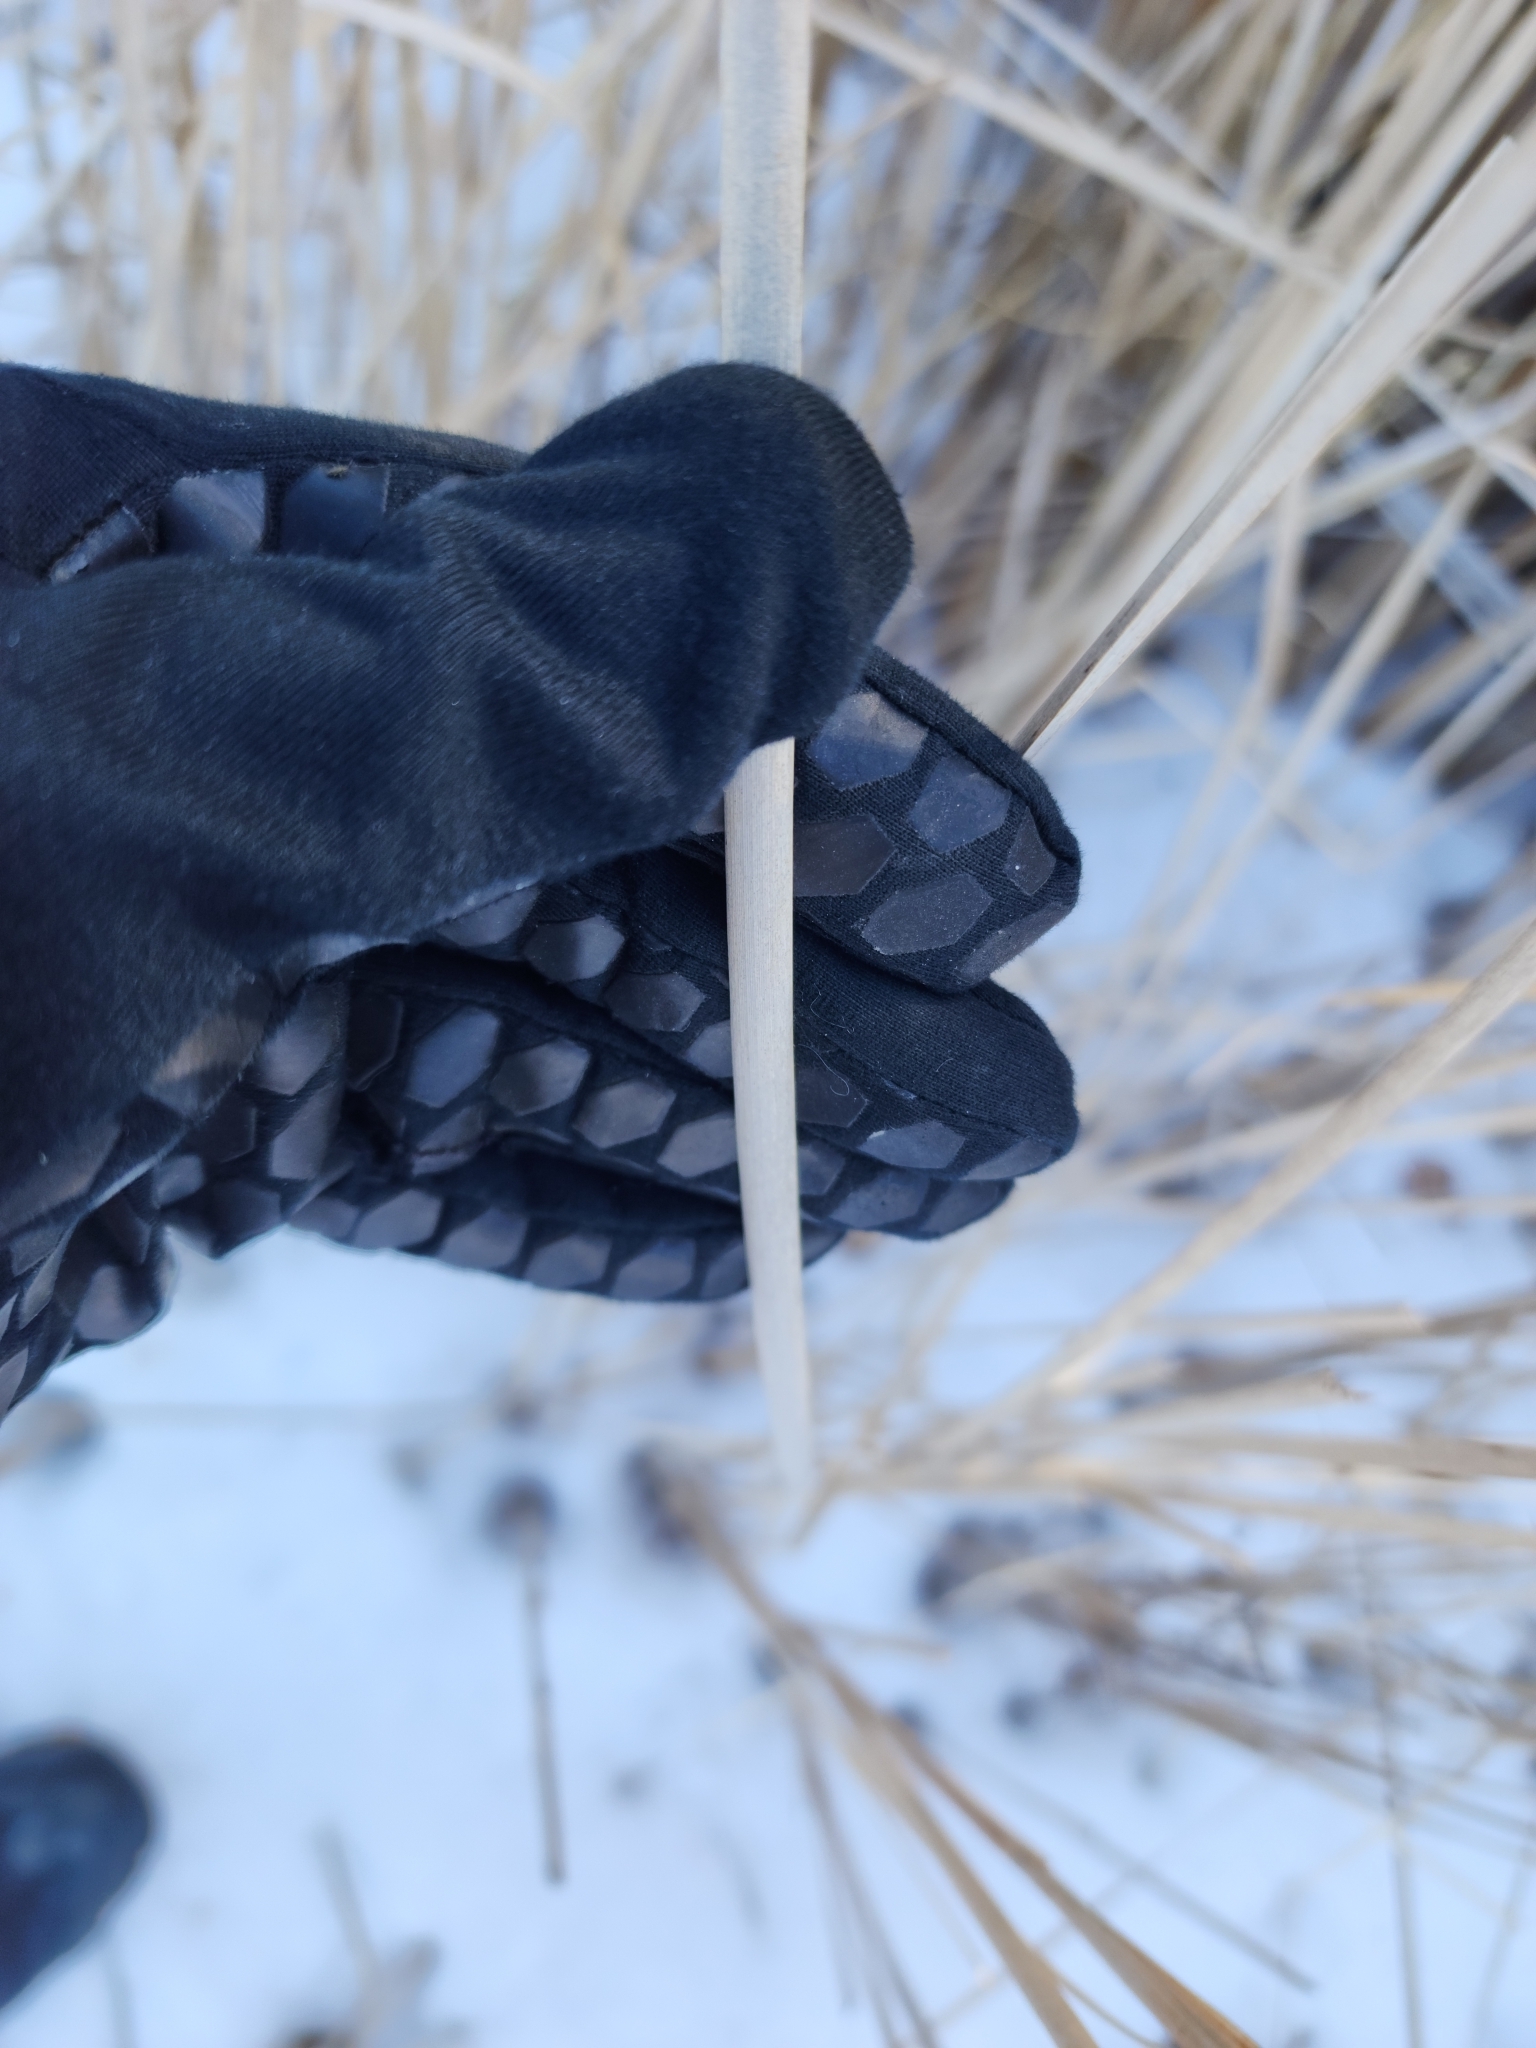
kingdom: Plantae
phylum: Tracheophyta
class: Liliopsida
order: Poales
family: Typhaceae
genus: Typha
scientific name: Typha angustifolia
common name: Lesser bulrush
